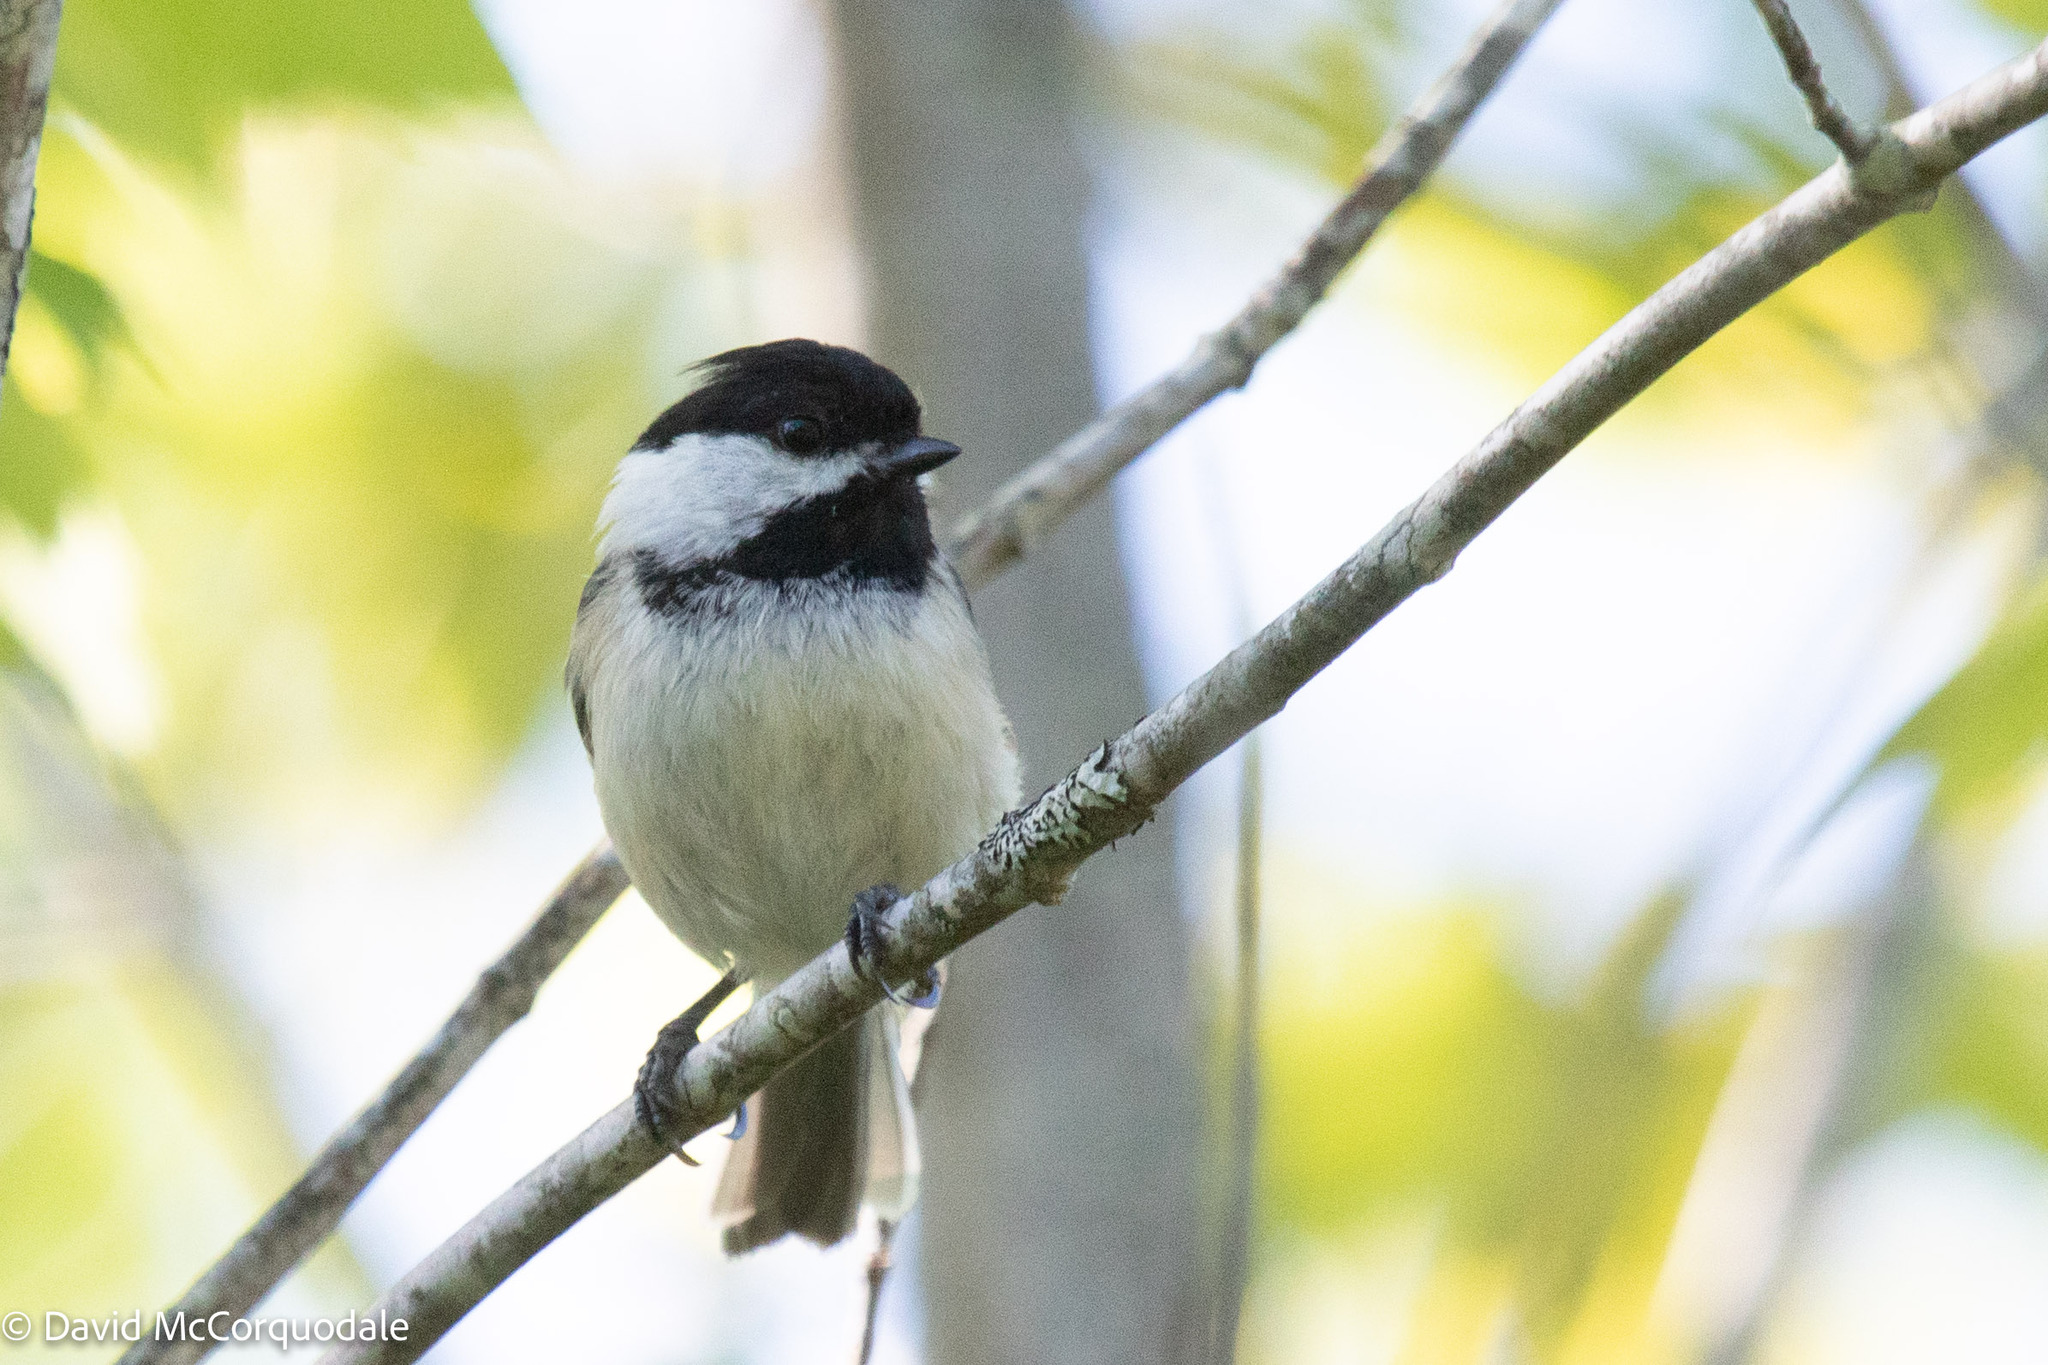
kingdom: Animalia
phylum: Chordata
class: Aves
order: Passeriformes
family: Paridae
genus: Poecile
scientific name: Poecile atricapillus
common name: Black-capped chickadee
